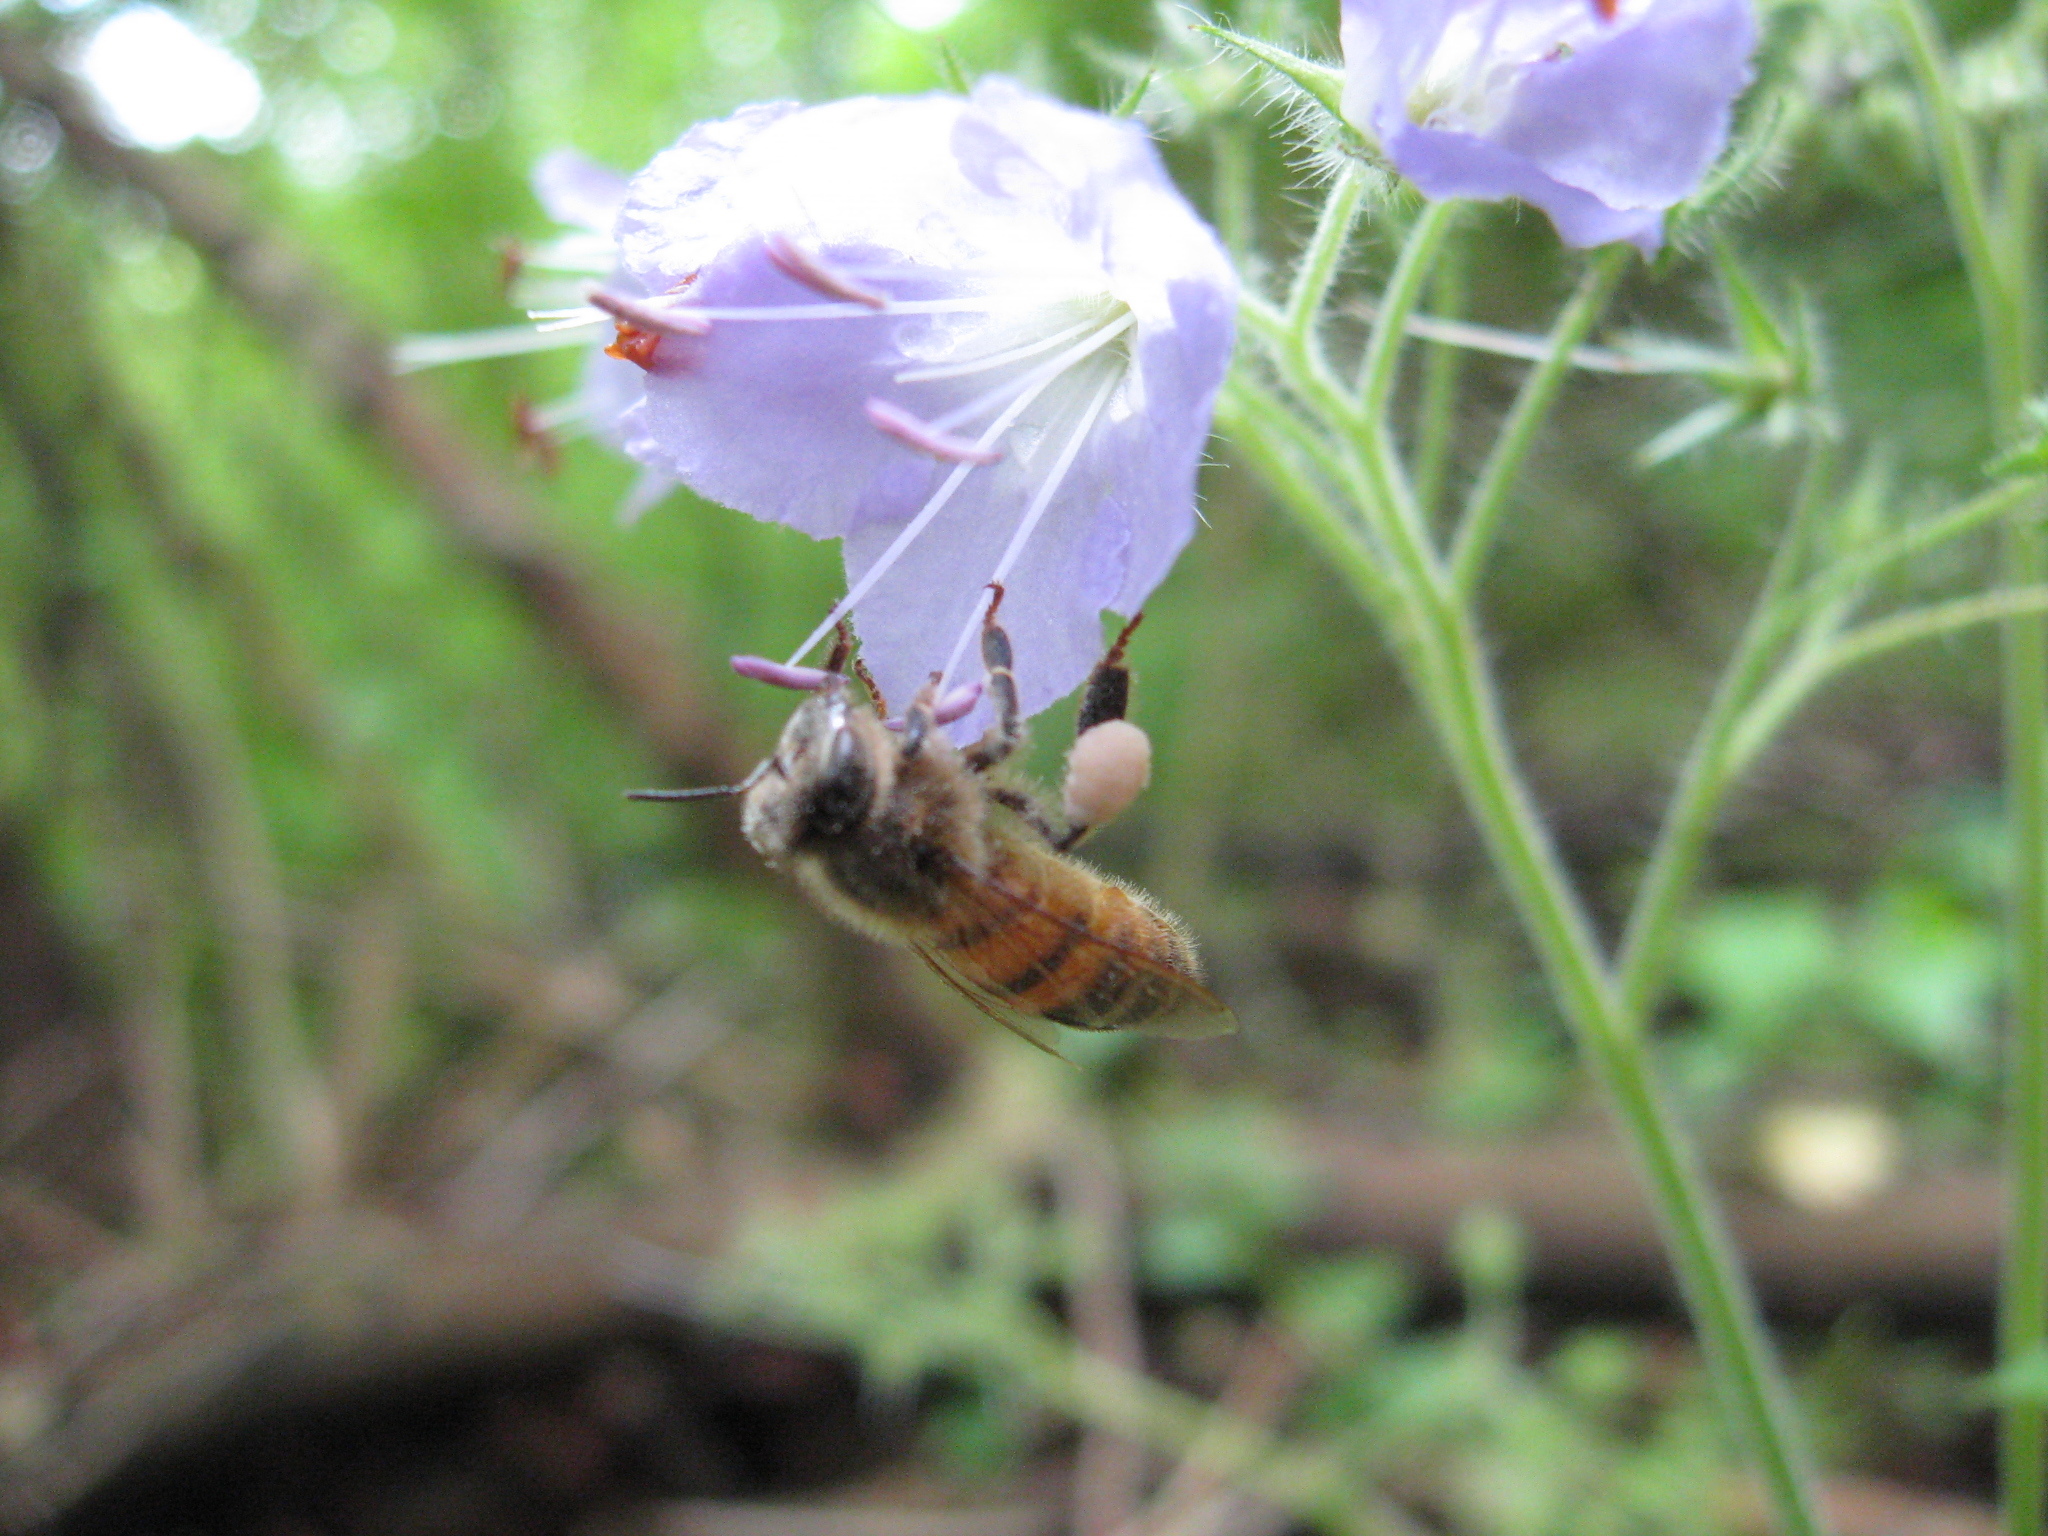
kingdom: Animalia
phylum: Arthropoda
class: Insecta
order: Hymenoptera
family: Apidae
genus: Apis
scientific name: Apis mellifera
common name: Honey bee
